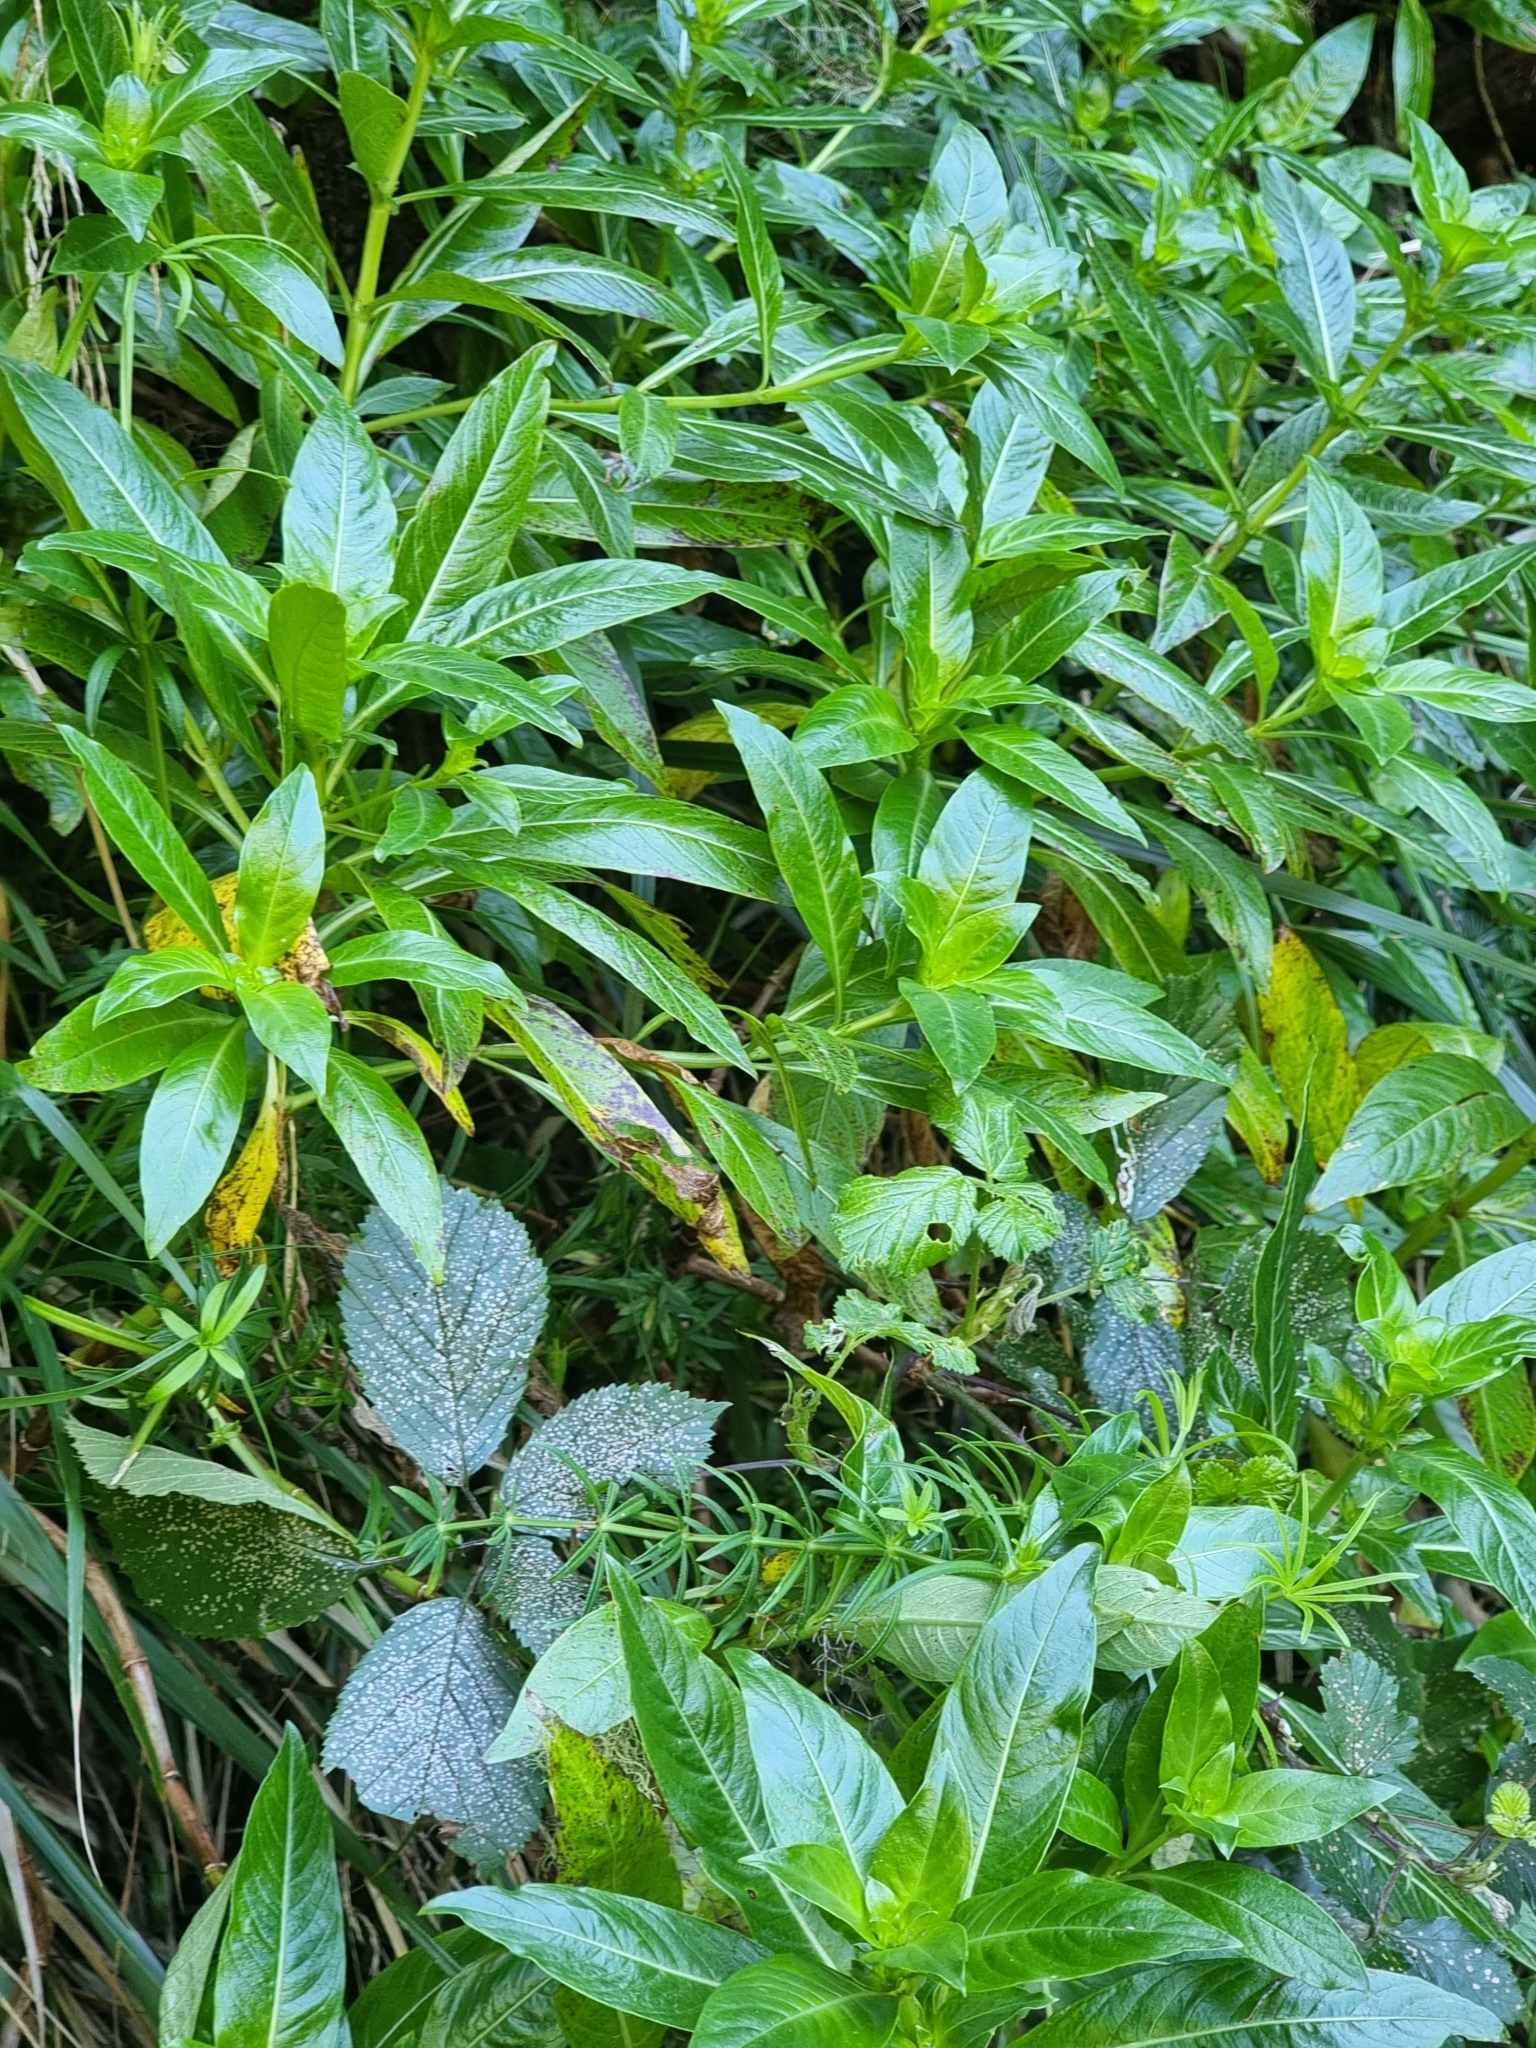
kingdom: Plantae
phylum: Tracheophyta
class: Magnoliopsida
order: Gentianales
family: Rubiaceae
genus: Phyllis
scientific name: Phyllis nobla
